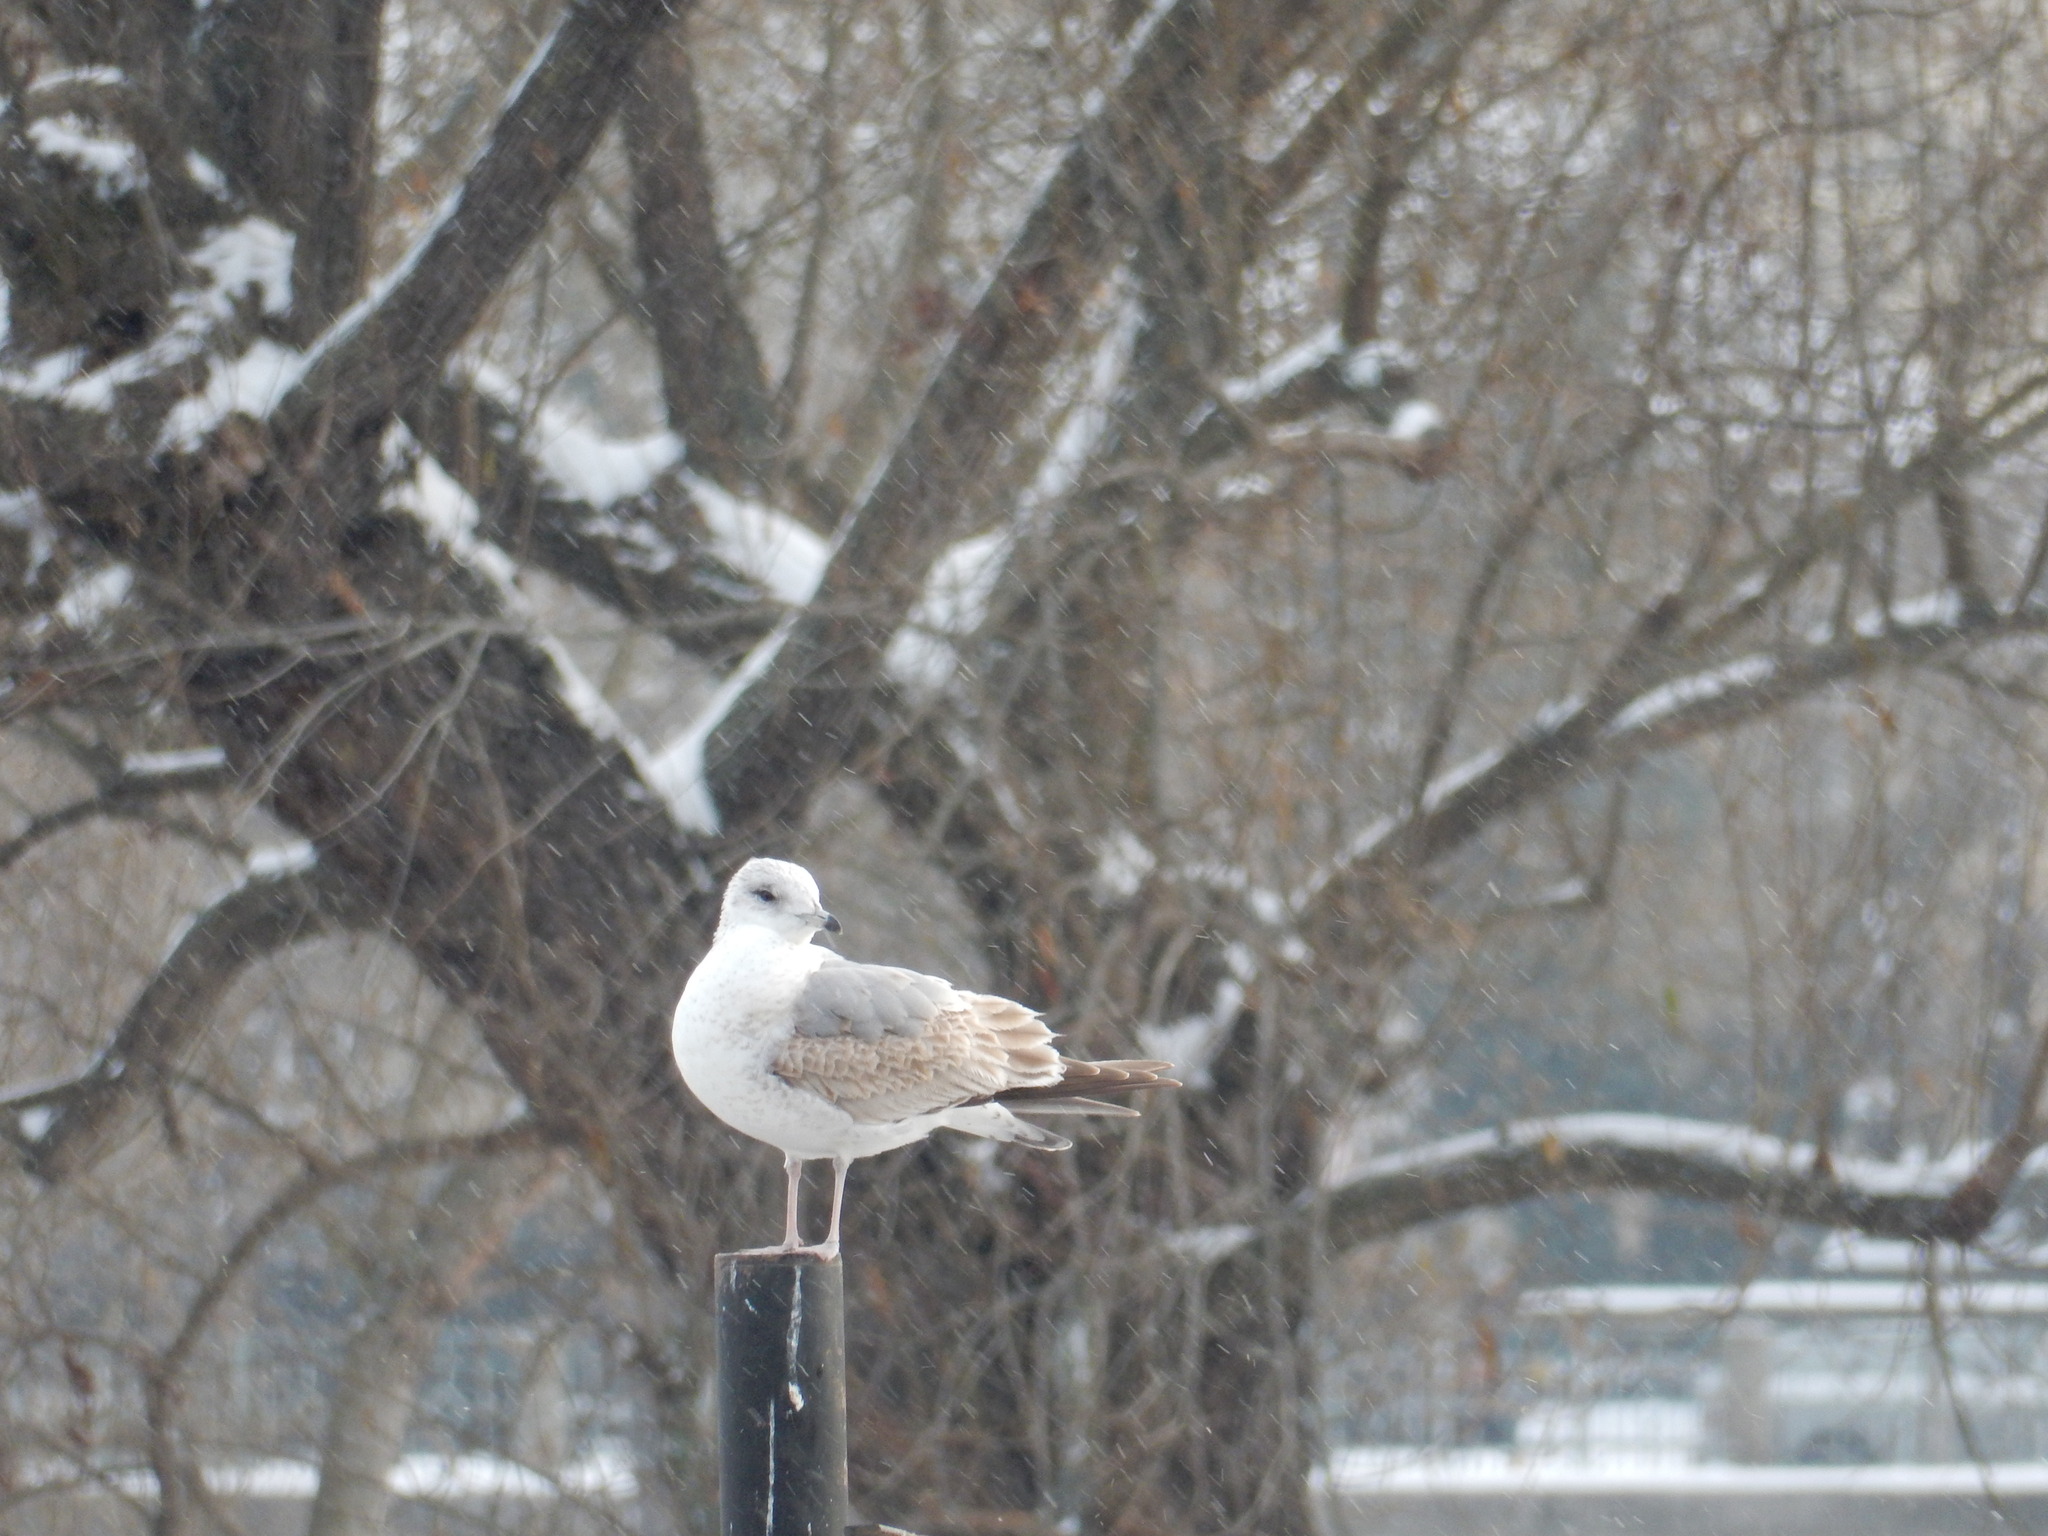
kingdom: Animalia
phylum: Chordata
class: Aves
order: Charadriiformes
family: Laridae
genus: Larus
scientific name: Larus canus
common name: Mew gull
